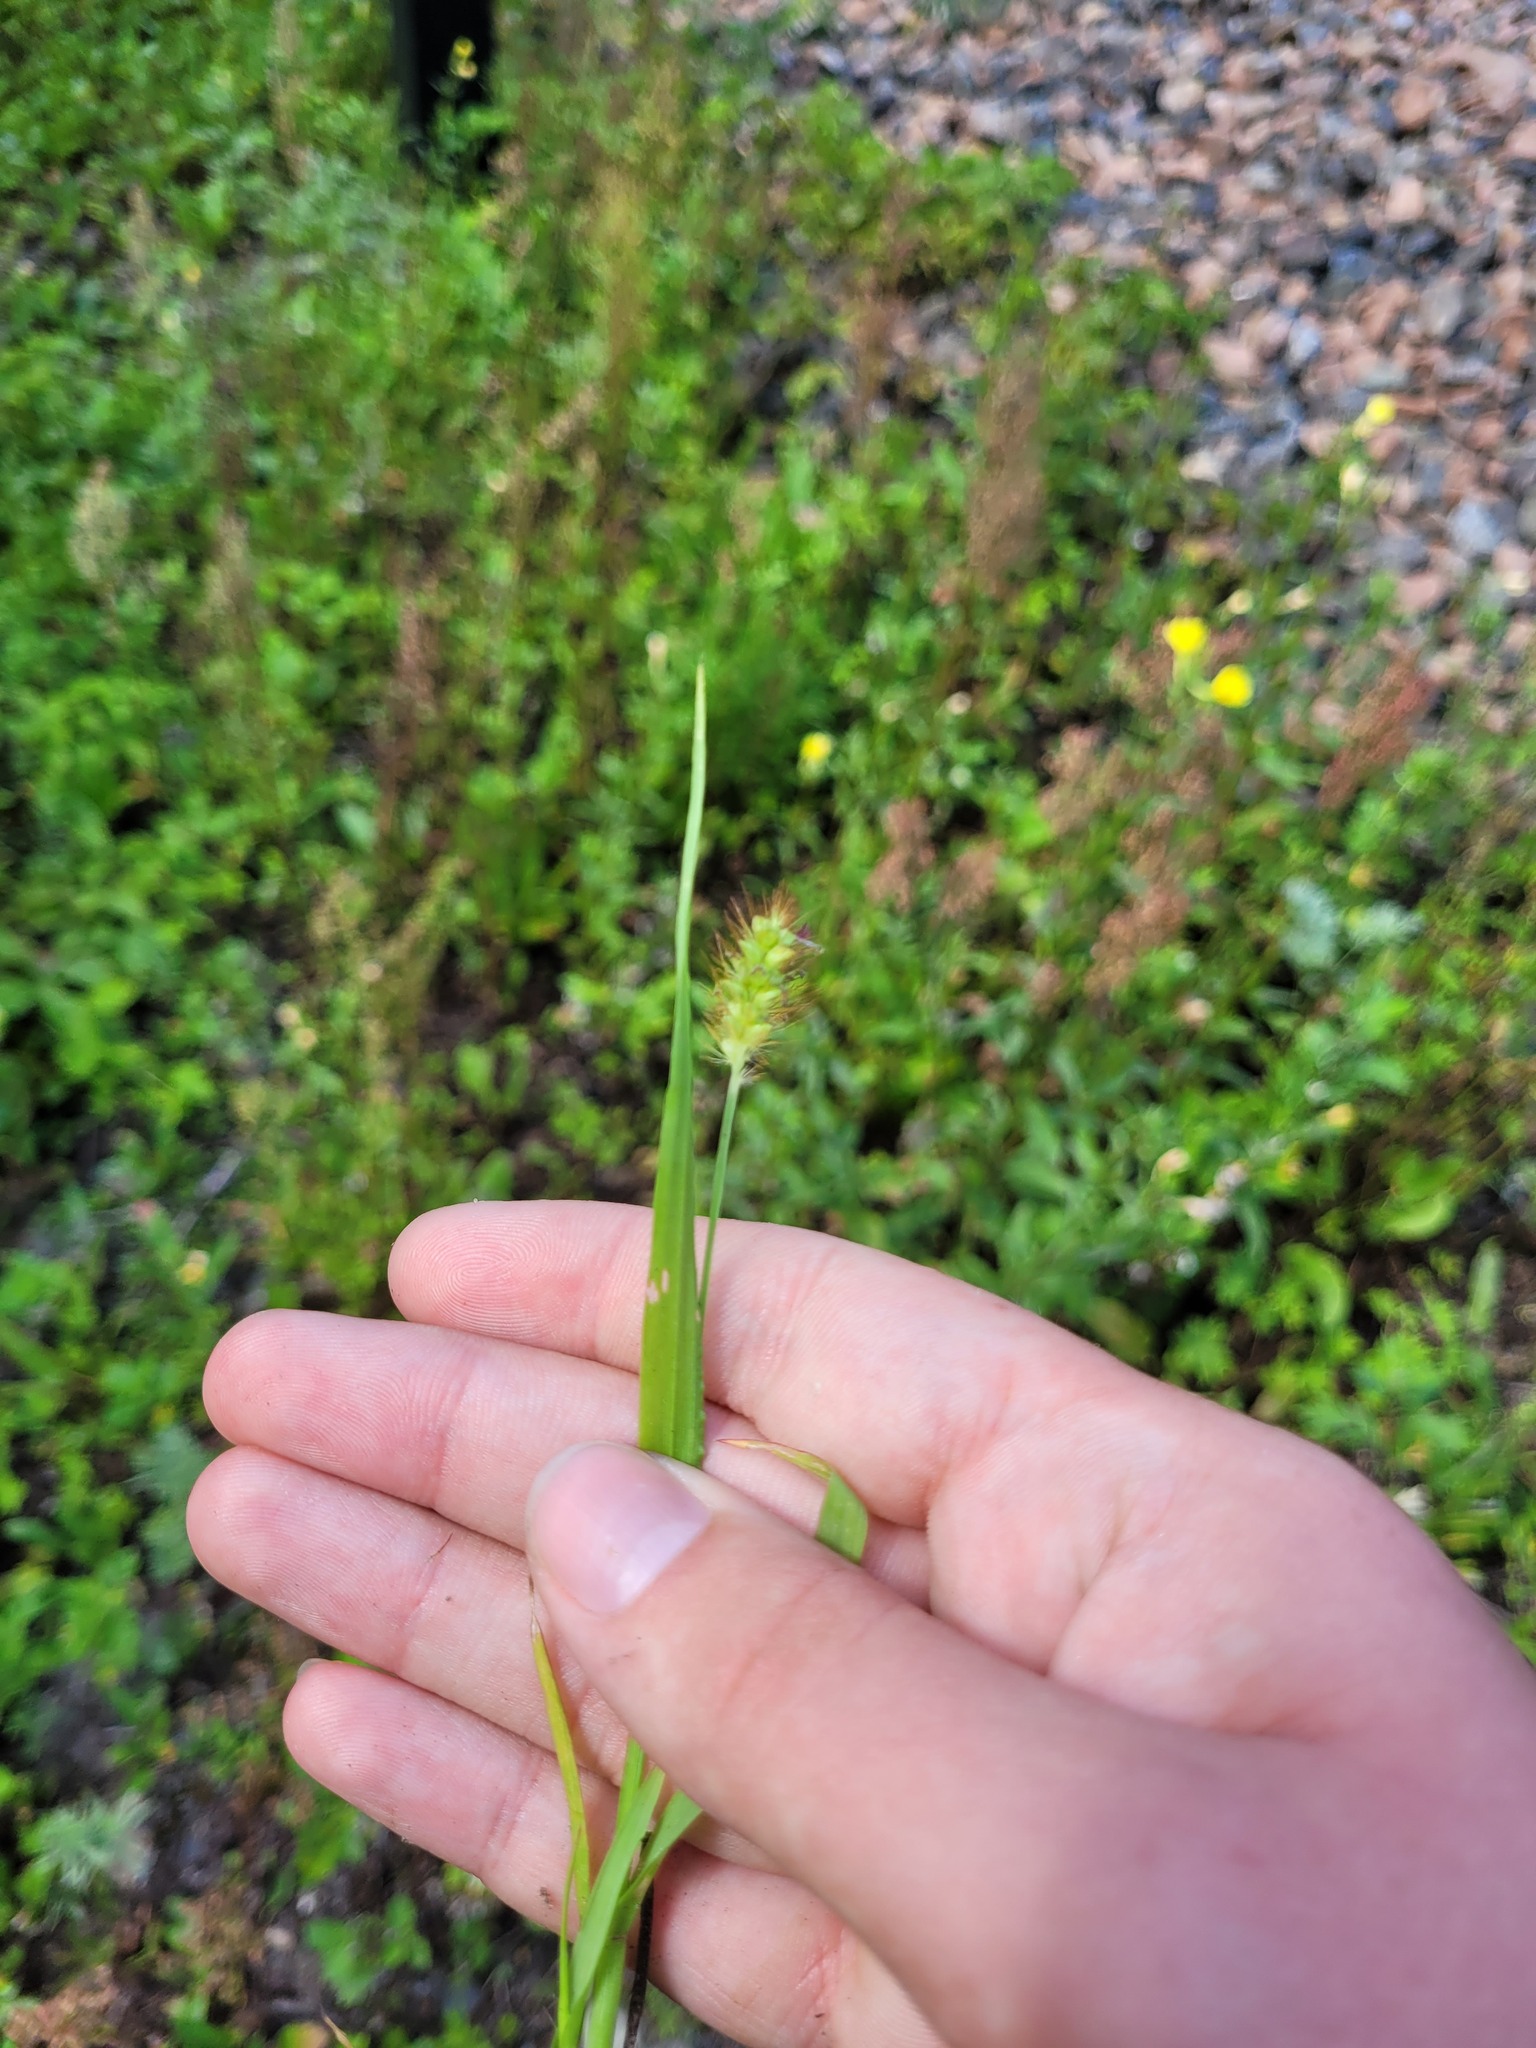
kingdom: Plantae
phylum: Tracheophyta
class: Liliopsida
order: Poales
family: Poaceae
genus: Setaria
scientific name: Setaria pumila
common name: Yellow bristle-grass
